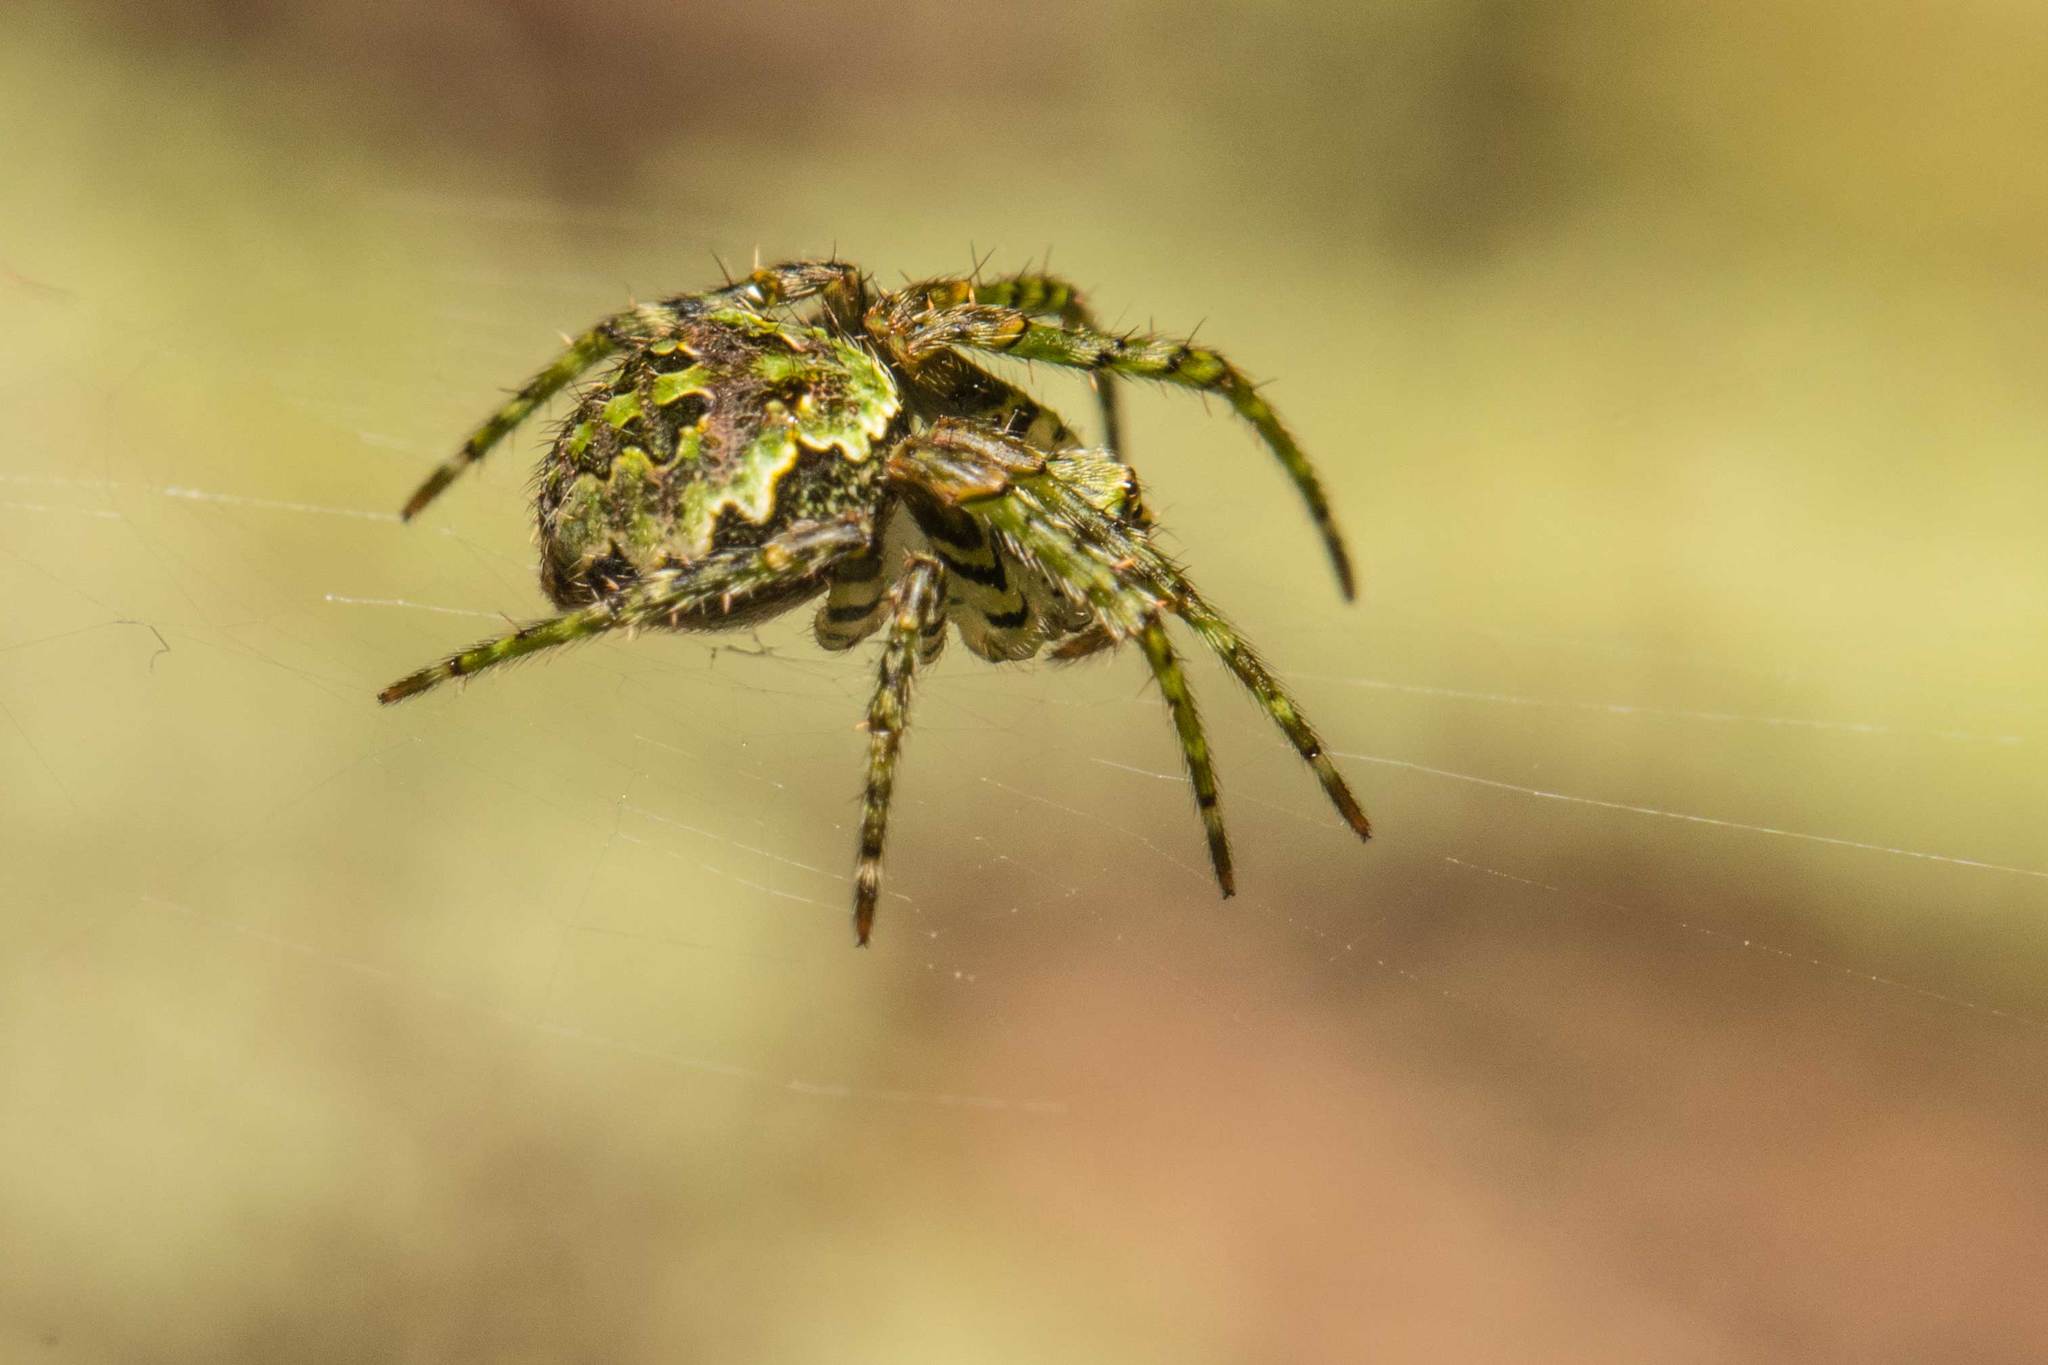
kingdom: Animalia
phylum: Arthropoda
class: Arachnida
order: Araneae
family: Araneidae
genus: Cryptaranea
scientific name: Cryptaranea atrihastula
